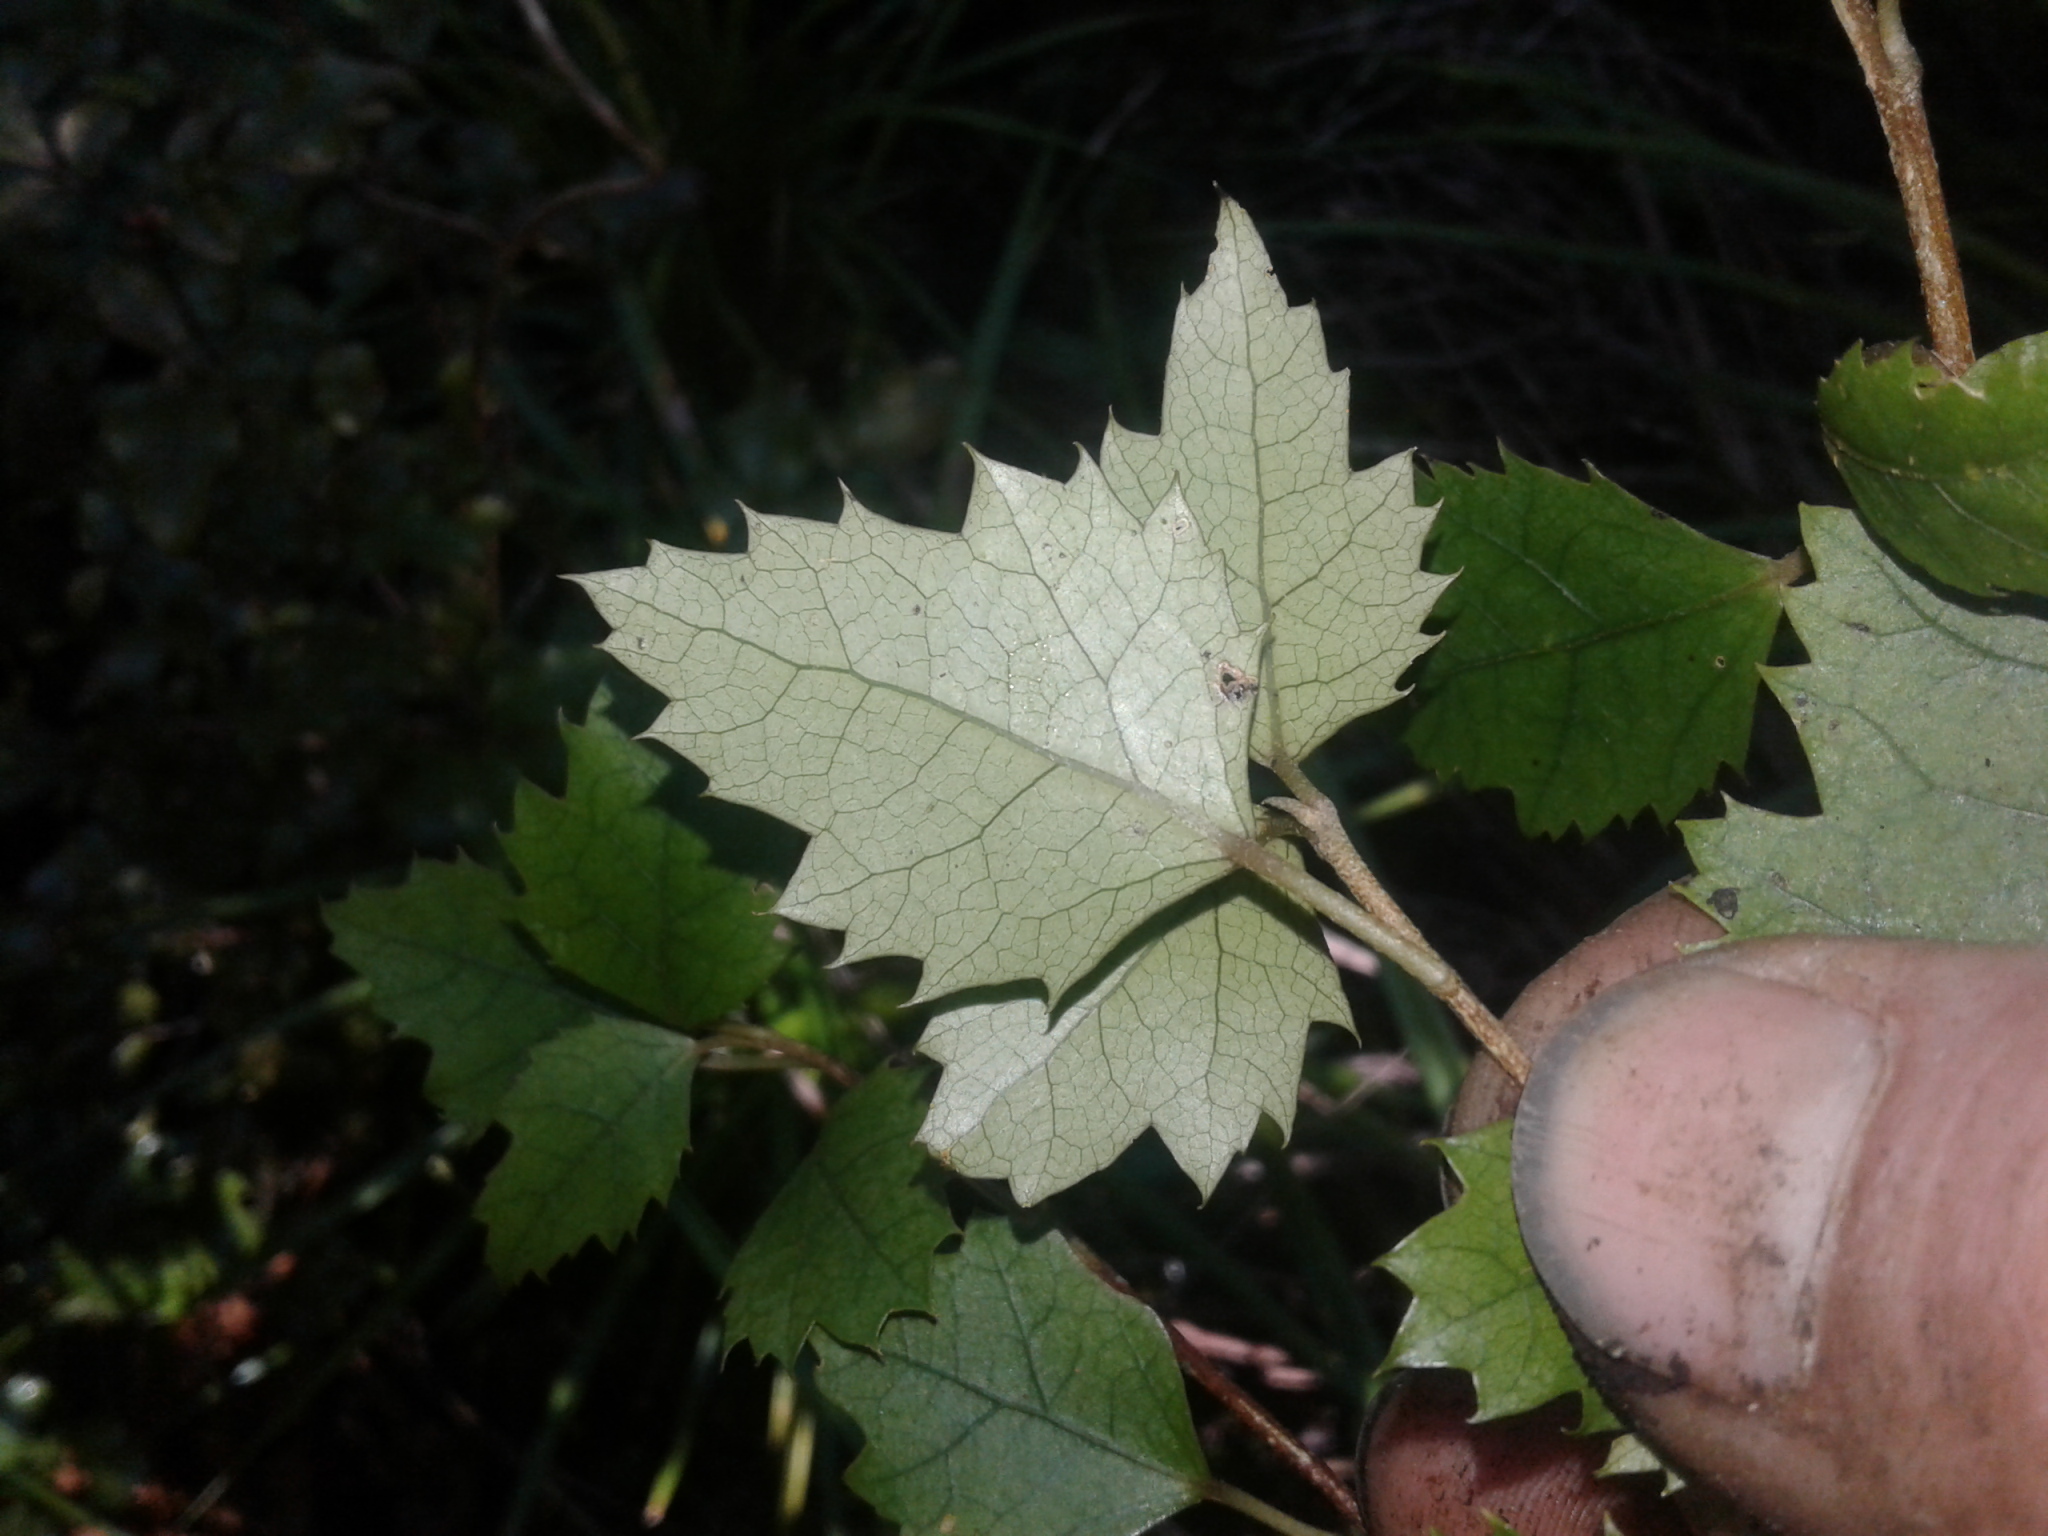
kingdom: Plantae
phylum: Tracheophyta
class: Magnoliopsida
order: Malvales
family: Malvaceae
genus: Hoheria
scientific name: Hoheria ovata
